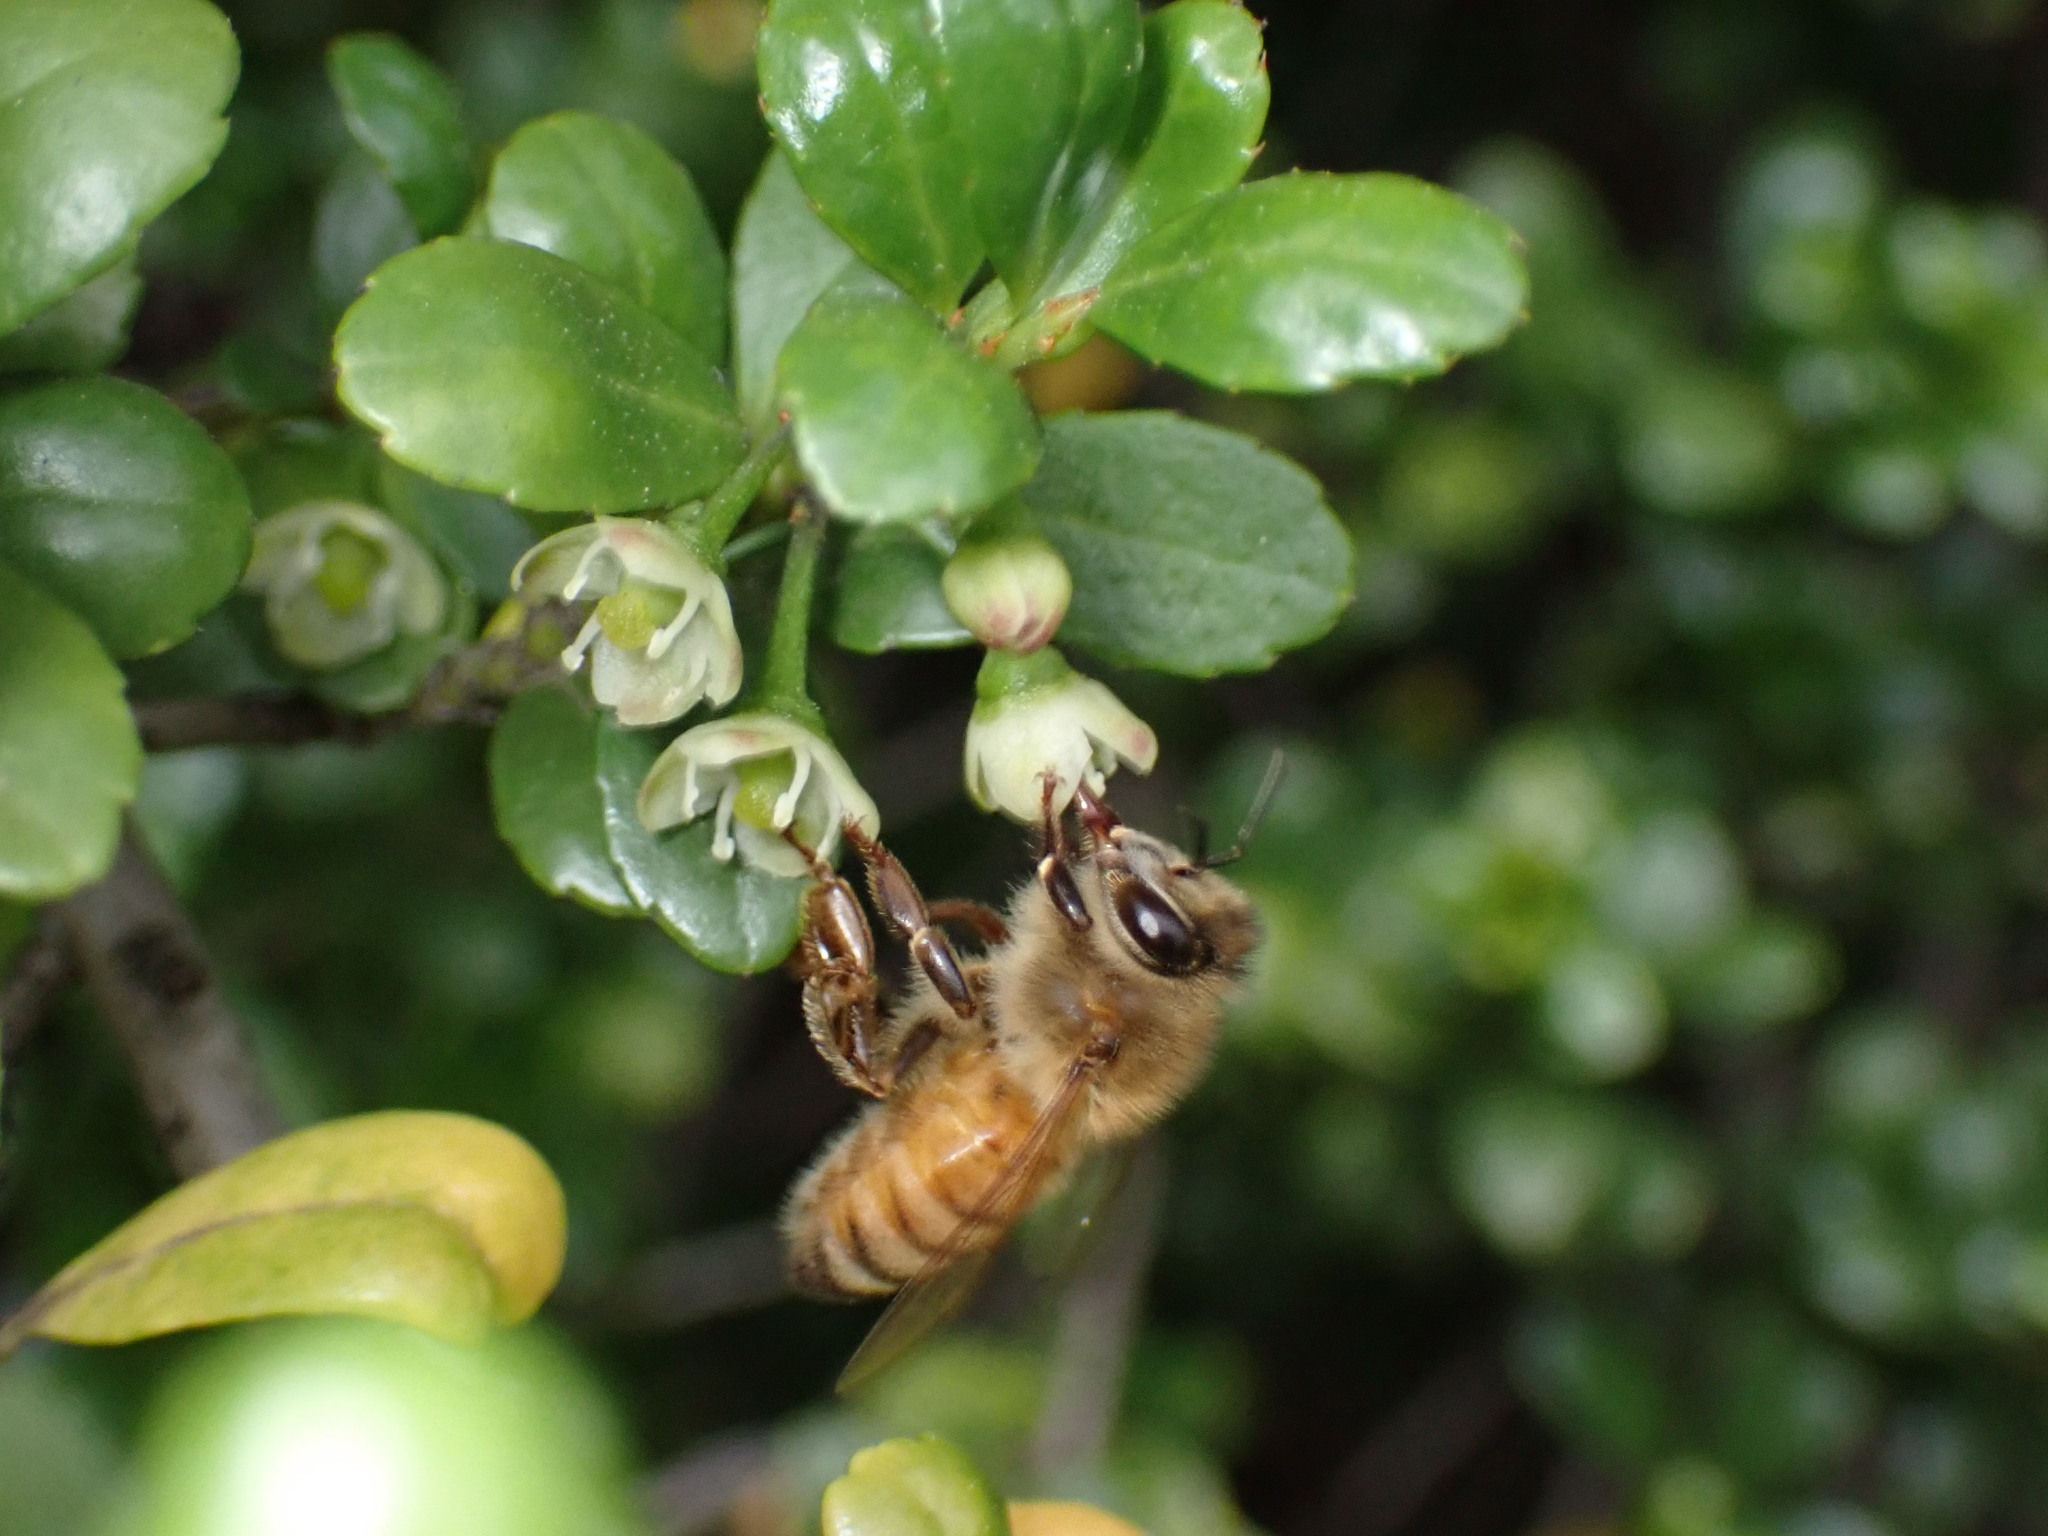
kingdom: Animalia
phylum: Arthropoda
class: Insecta
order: Hymenoptera
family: Apidae
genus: Apis
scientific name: Apis mellifera
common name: Honey bee
